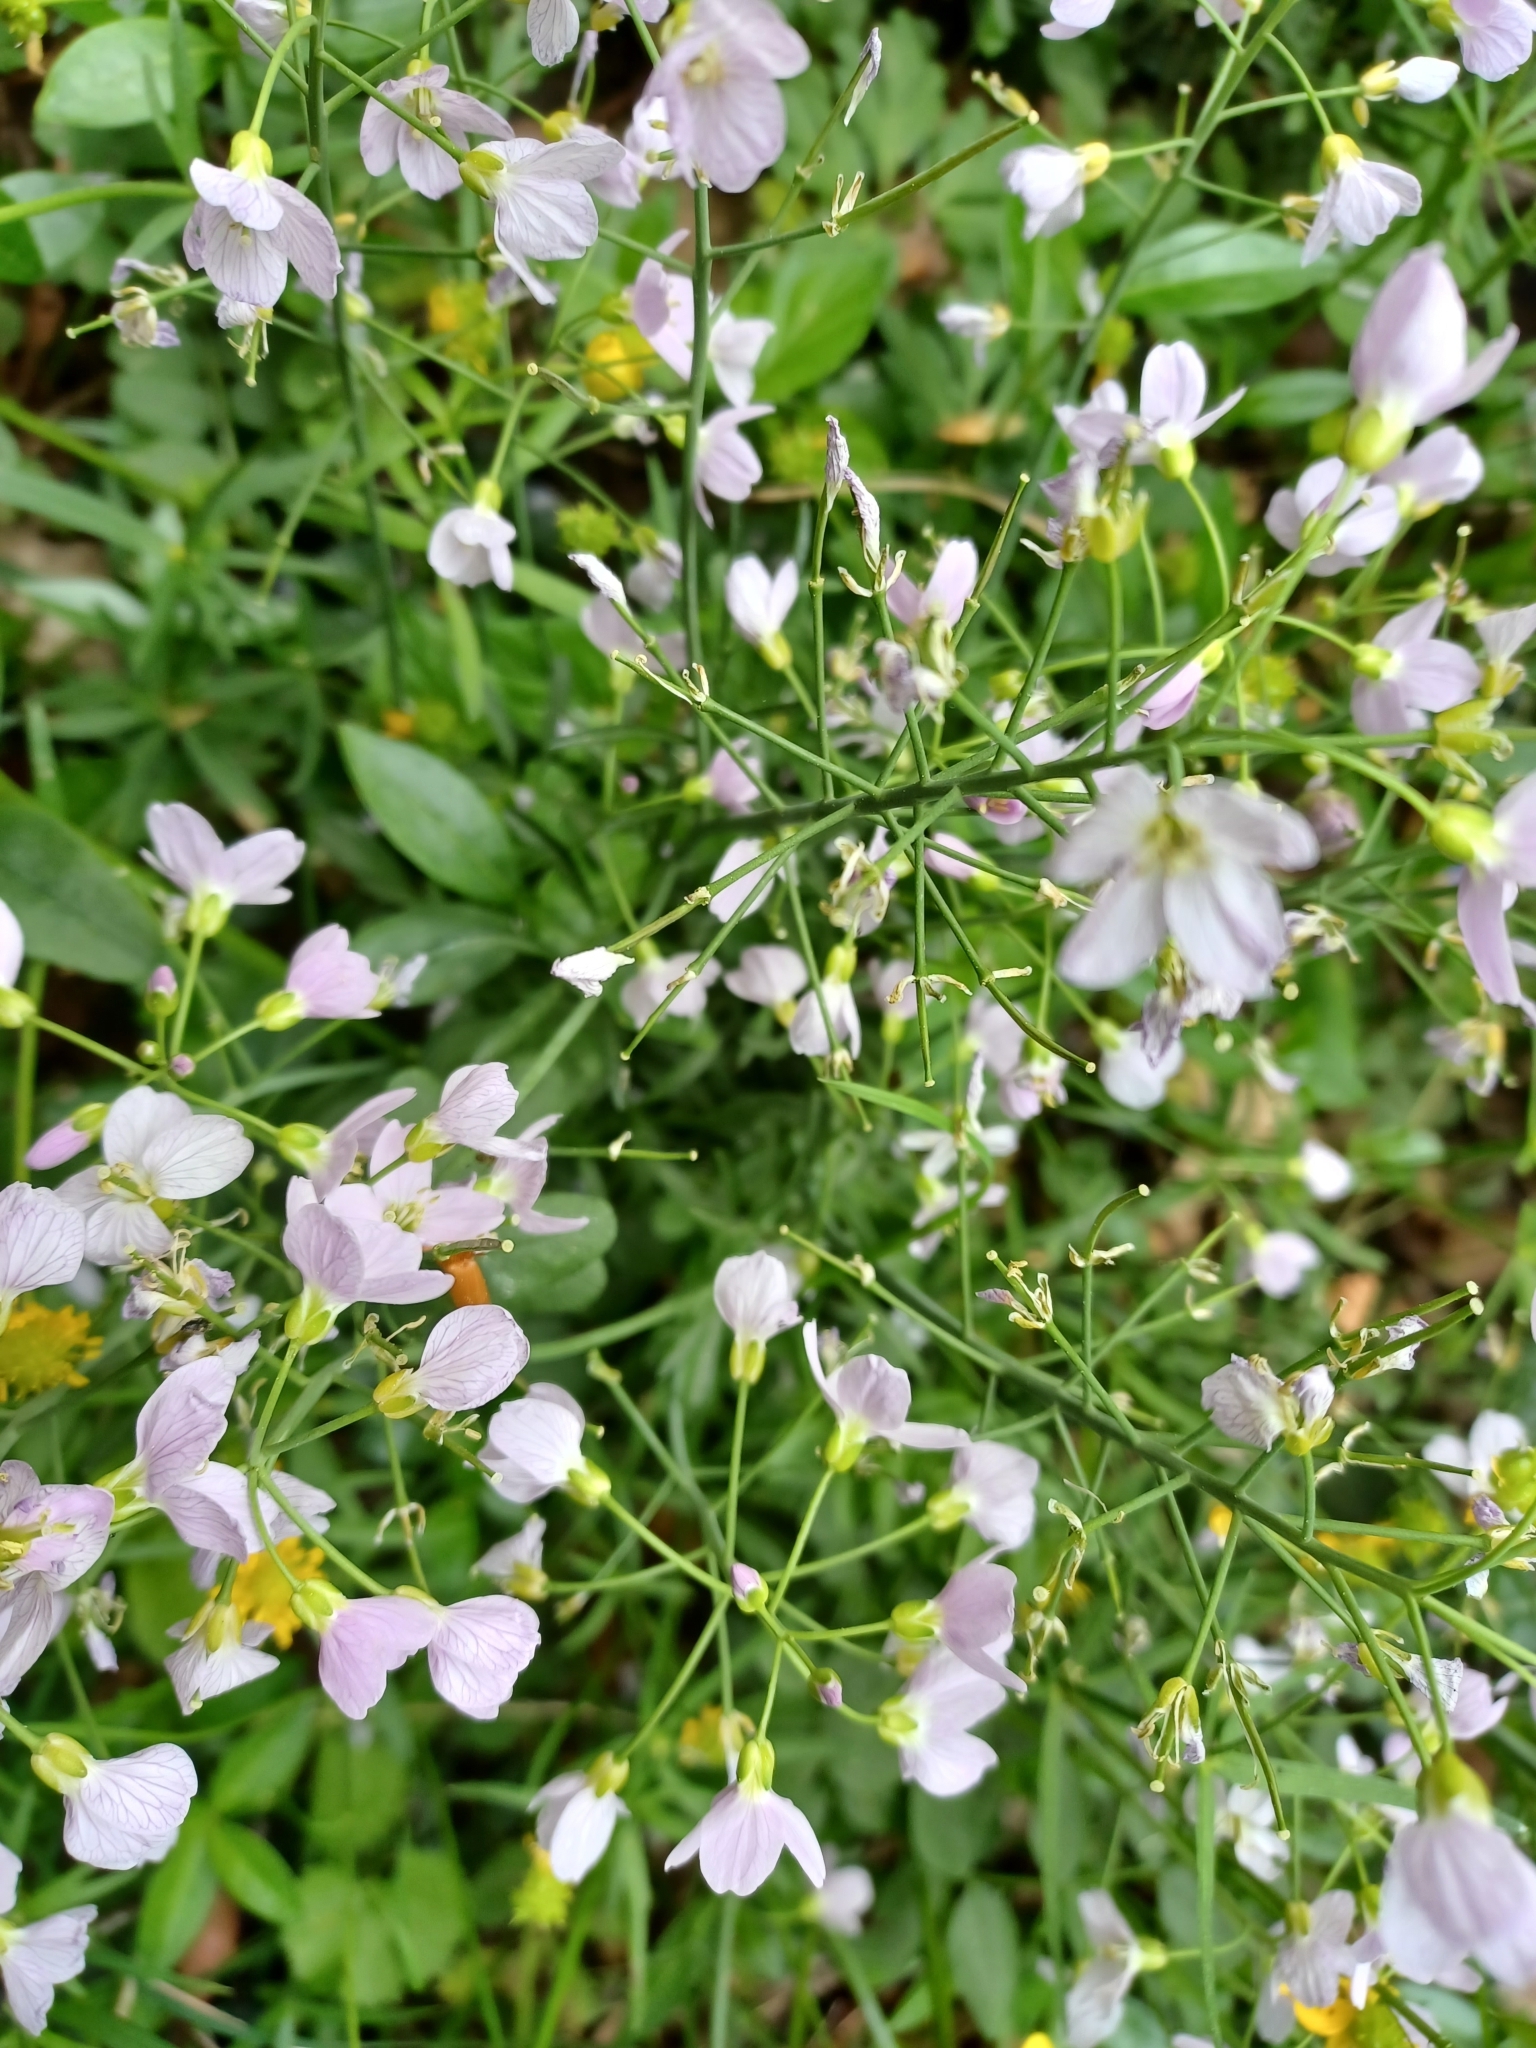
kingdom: Plantae
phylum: Tracheophyta
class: Magnoliopsida
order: Brassicales
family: Brassicaceae
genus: Cardamine
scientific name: Cardamine pratensis
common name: Cuckoo flower
